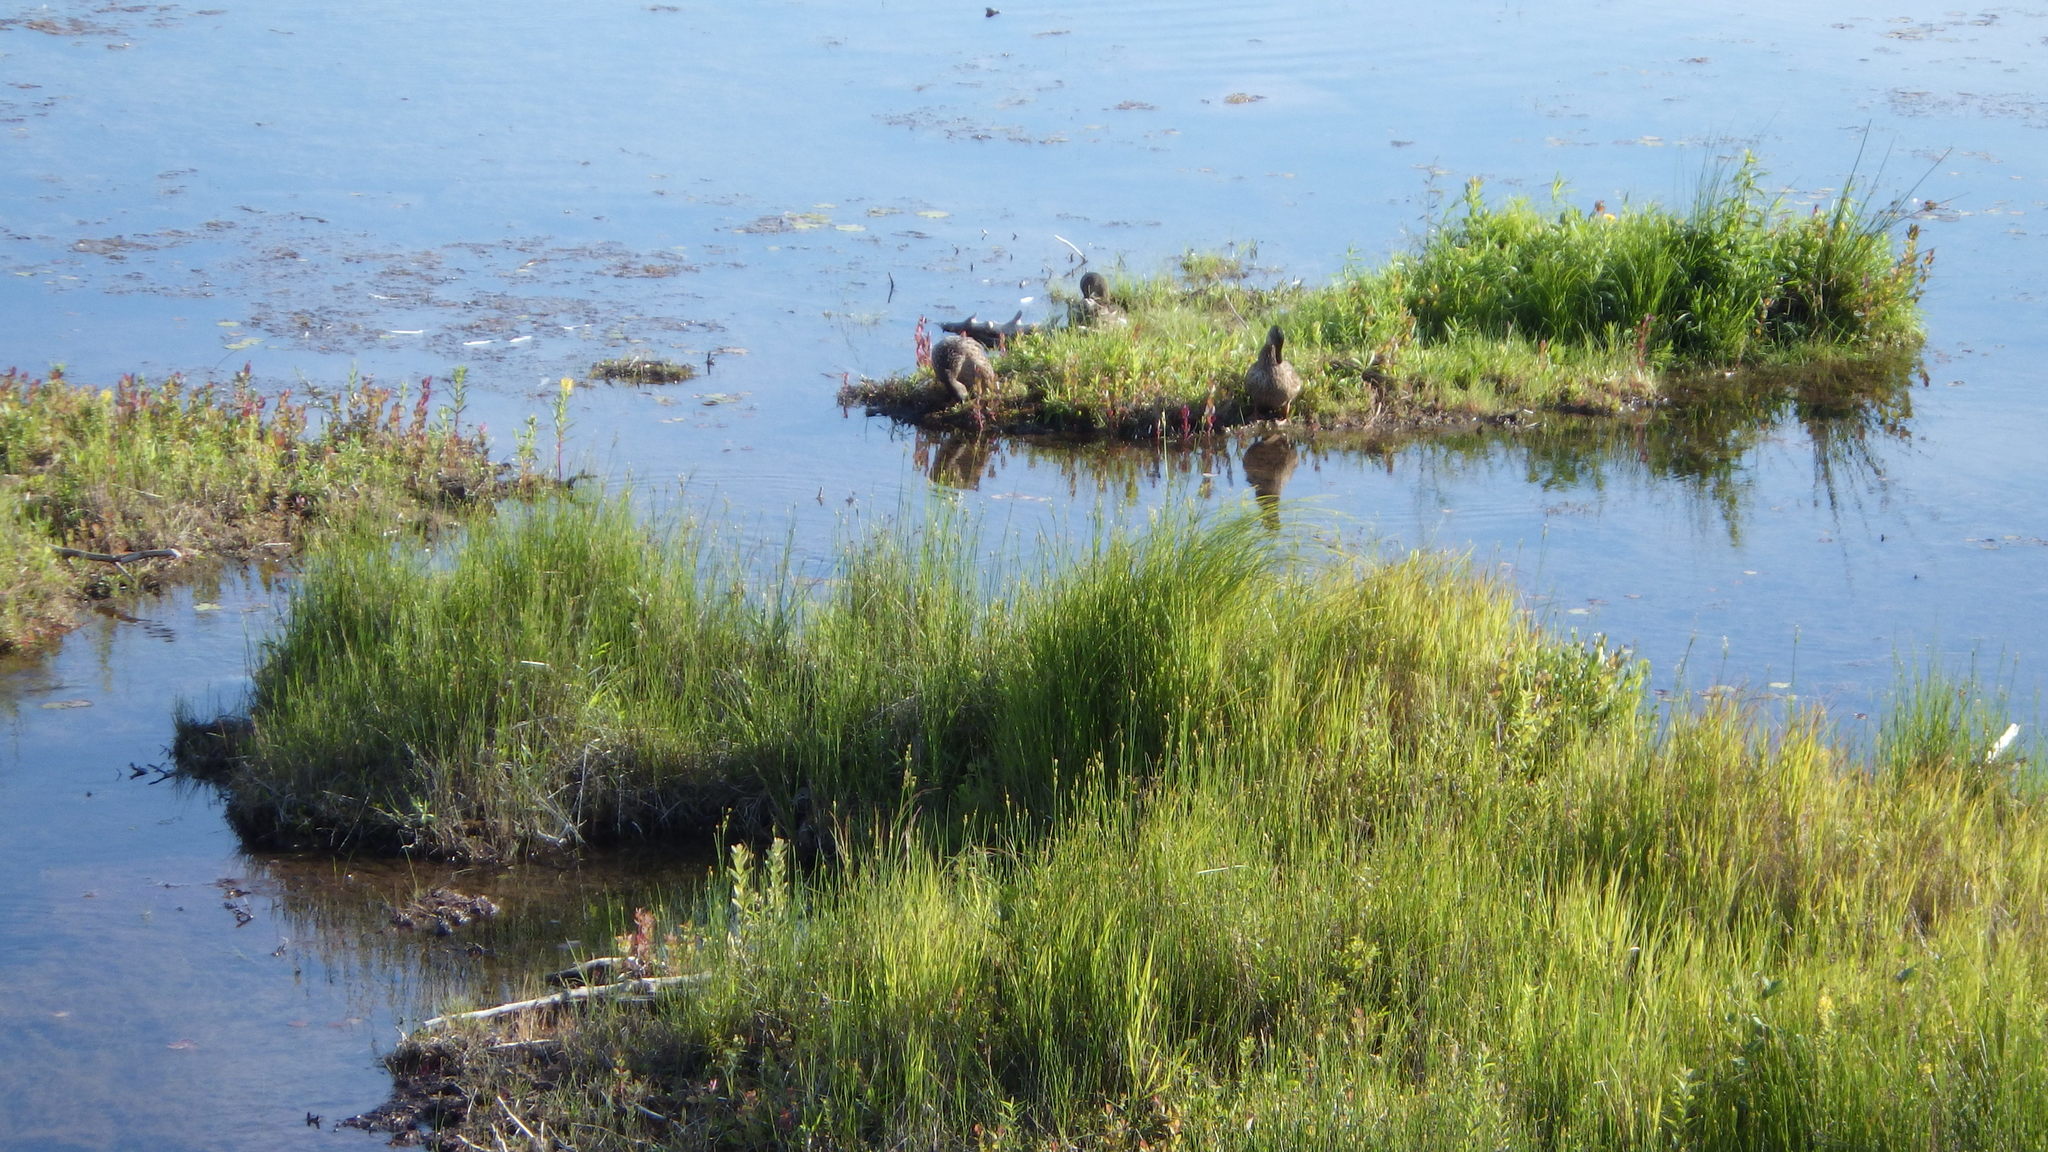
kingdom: Animalia
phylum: Chordata
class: Aves
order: Anseriformes
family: Anatidae
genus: Anas
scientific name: Anas platyrhynchos
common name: Mallard
